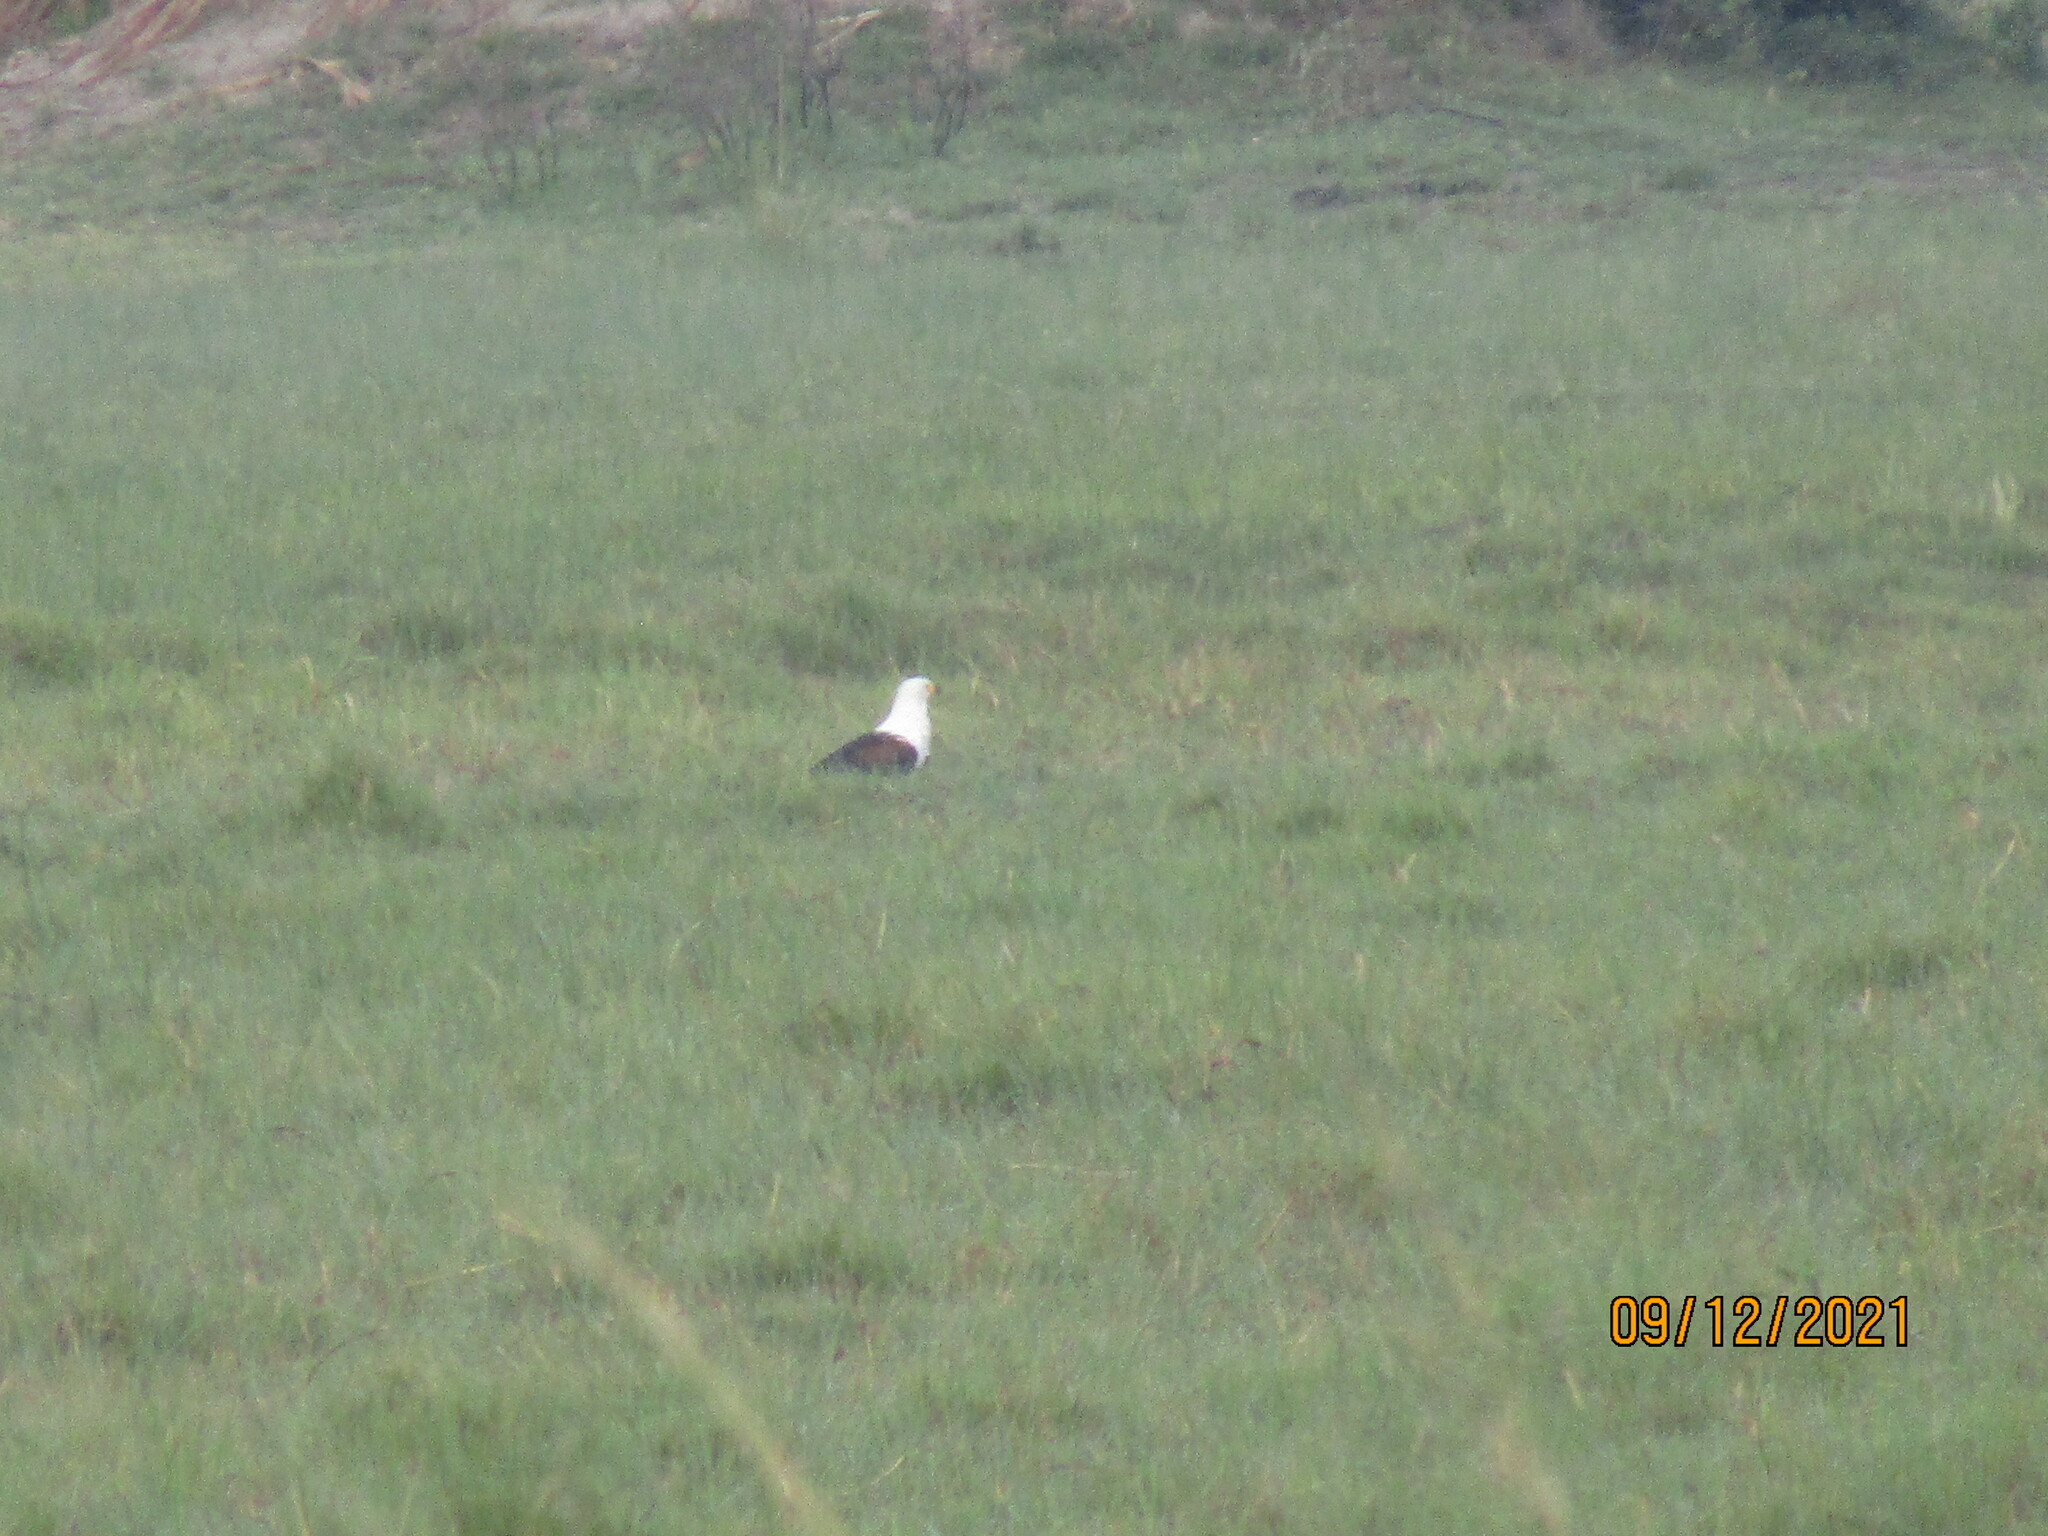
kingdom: Animalia
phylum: Chordata
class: Aves
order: Accipitriformes
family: Accipitridae
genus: Haliaeetus
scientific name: Haliaeetus vocifer
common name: African fish eagle
